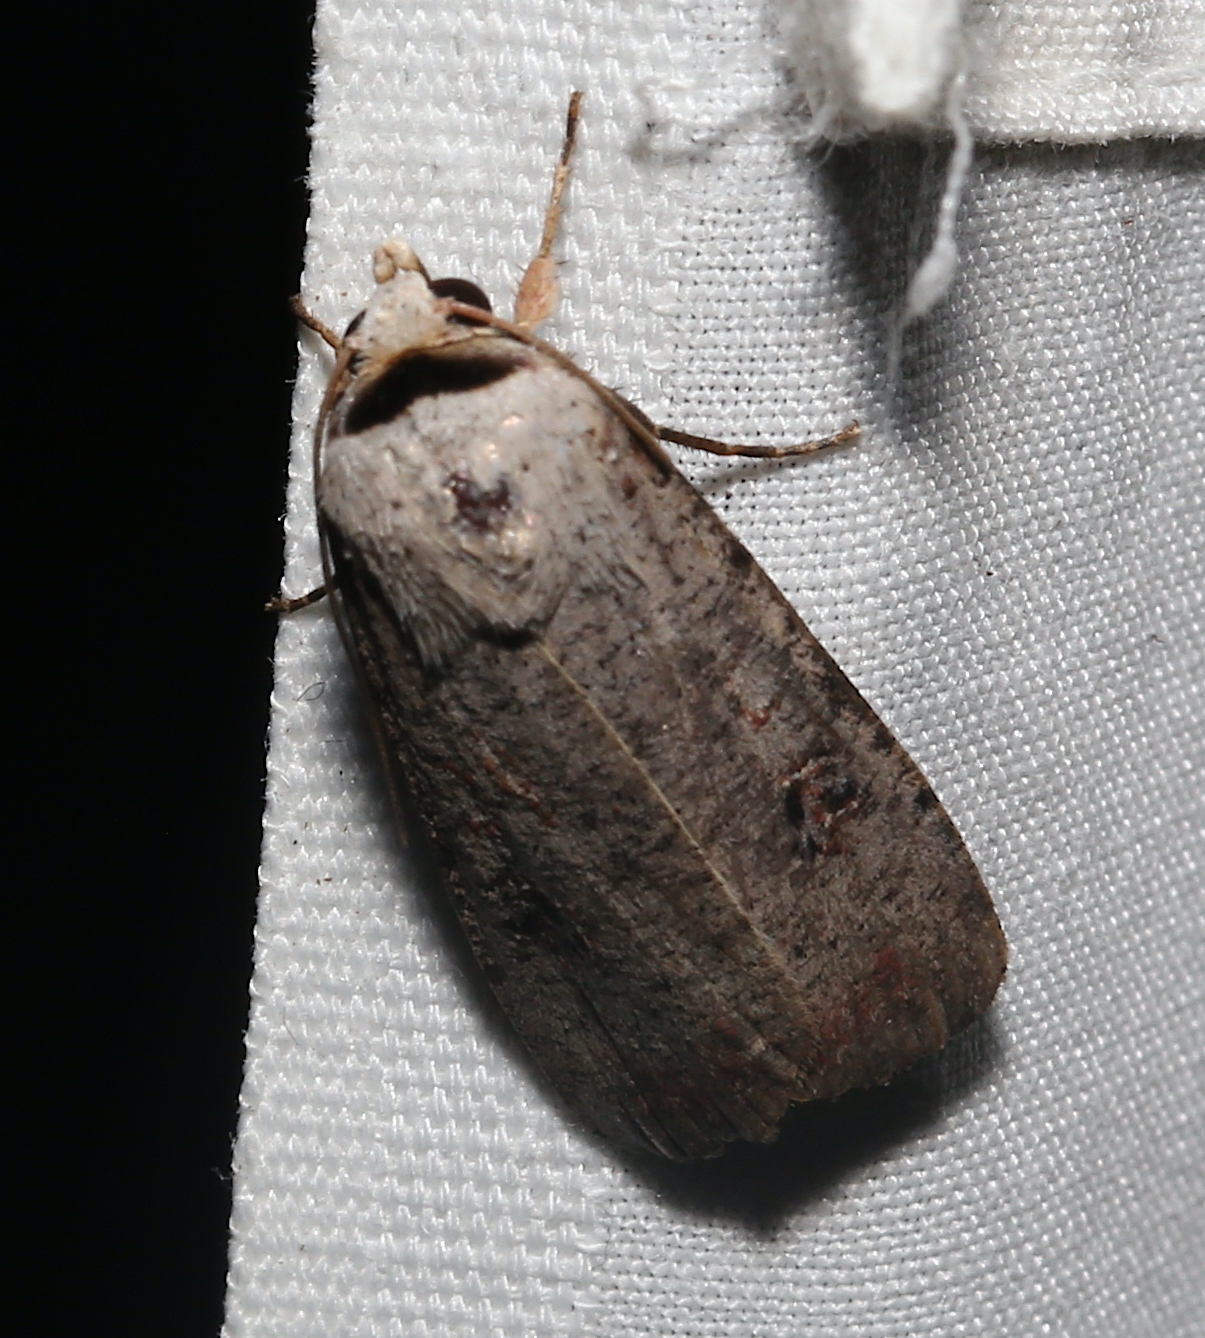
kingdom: Animalia
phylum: Arthropoda
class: Insecta
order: Lepidoptera
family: Noctuidae
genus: Anicla
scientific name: Anicla infecta
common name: Green cutworm
